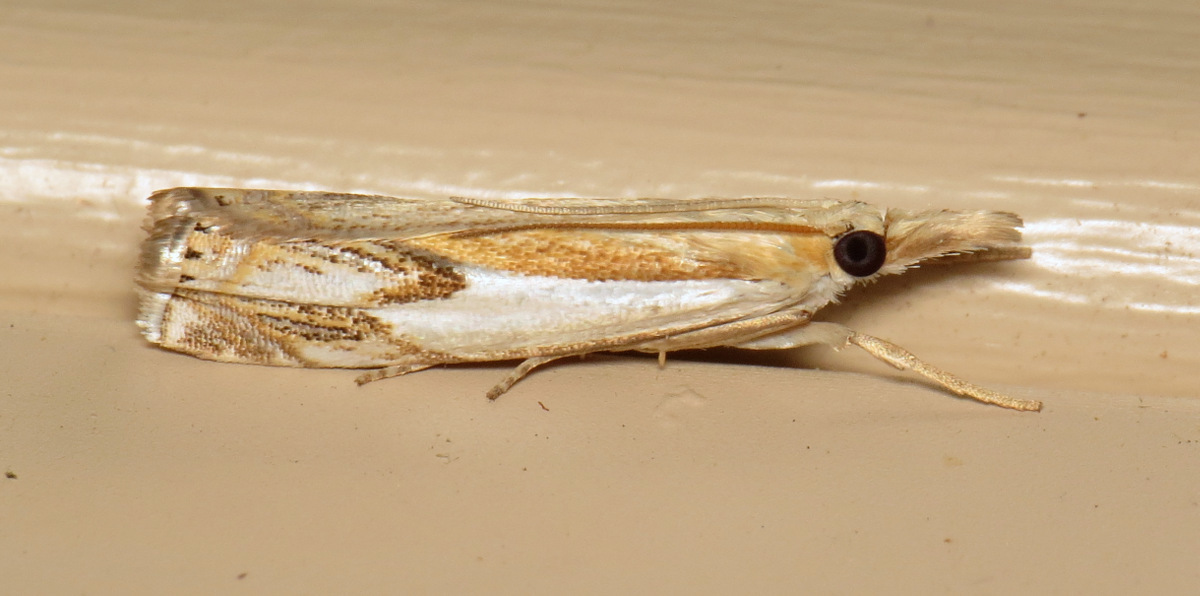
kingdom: Animalia
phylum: Arthropoda
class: Insecta
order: Lepidoptera
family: Crambidae
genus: Crambus
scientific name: Crambus agitatellus
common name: Double-banded grass-veneer
